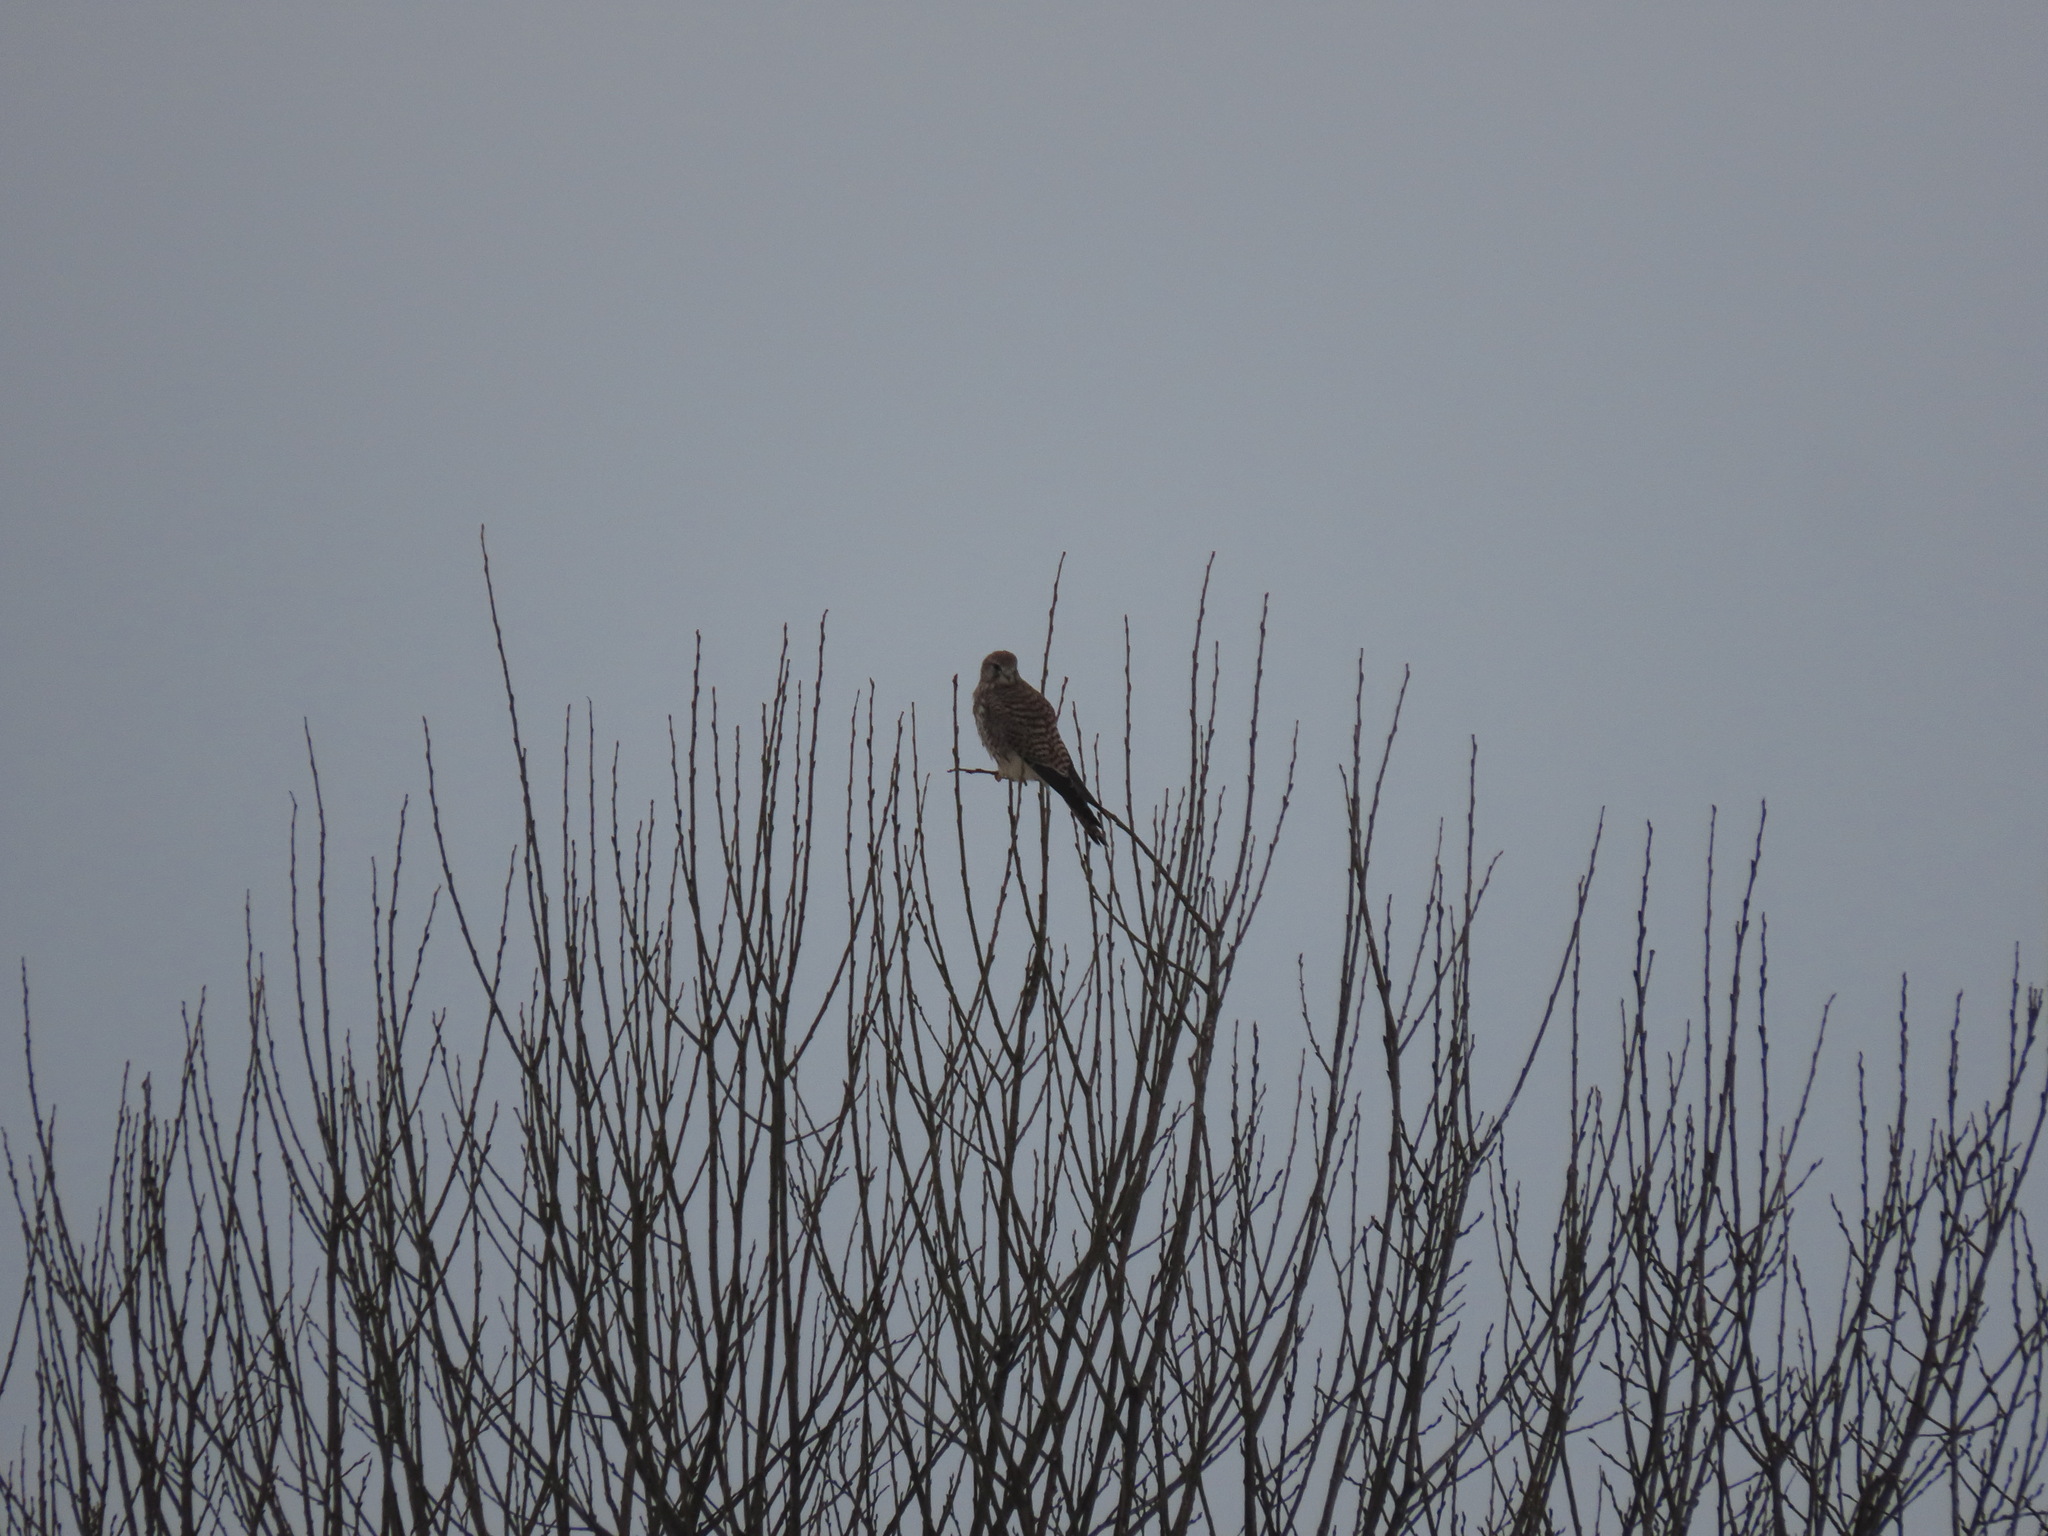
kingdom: Animalia
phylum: Chordata
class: Aves
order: Falconiformes
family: Falconidae
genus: Falco
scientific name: Falco tinnunculus
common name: Common kestrel
